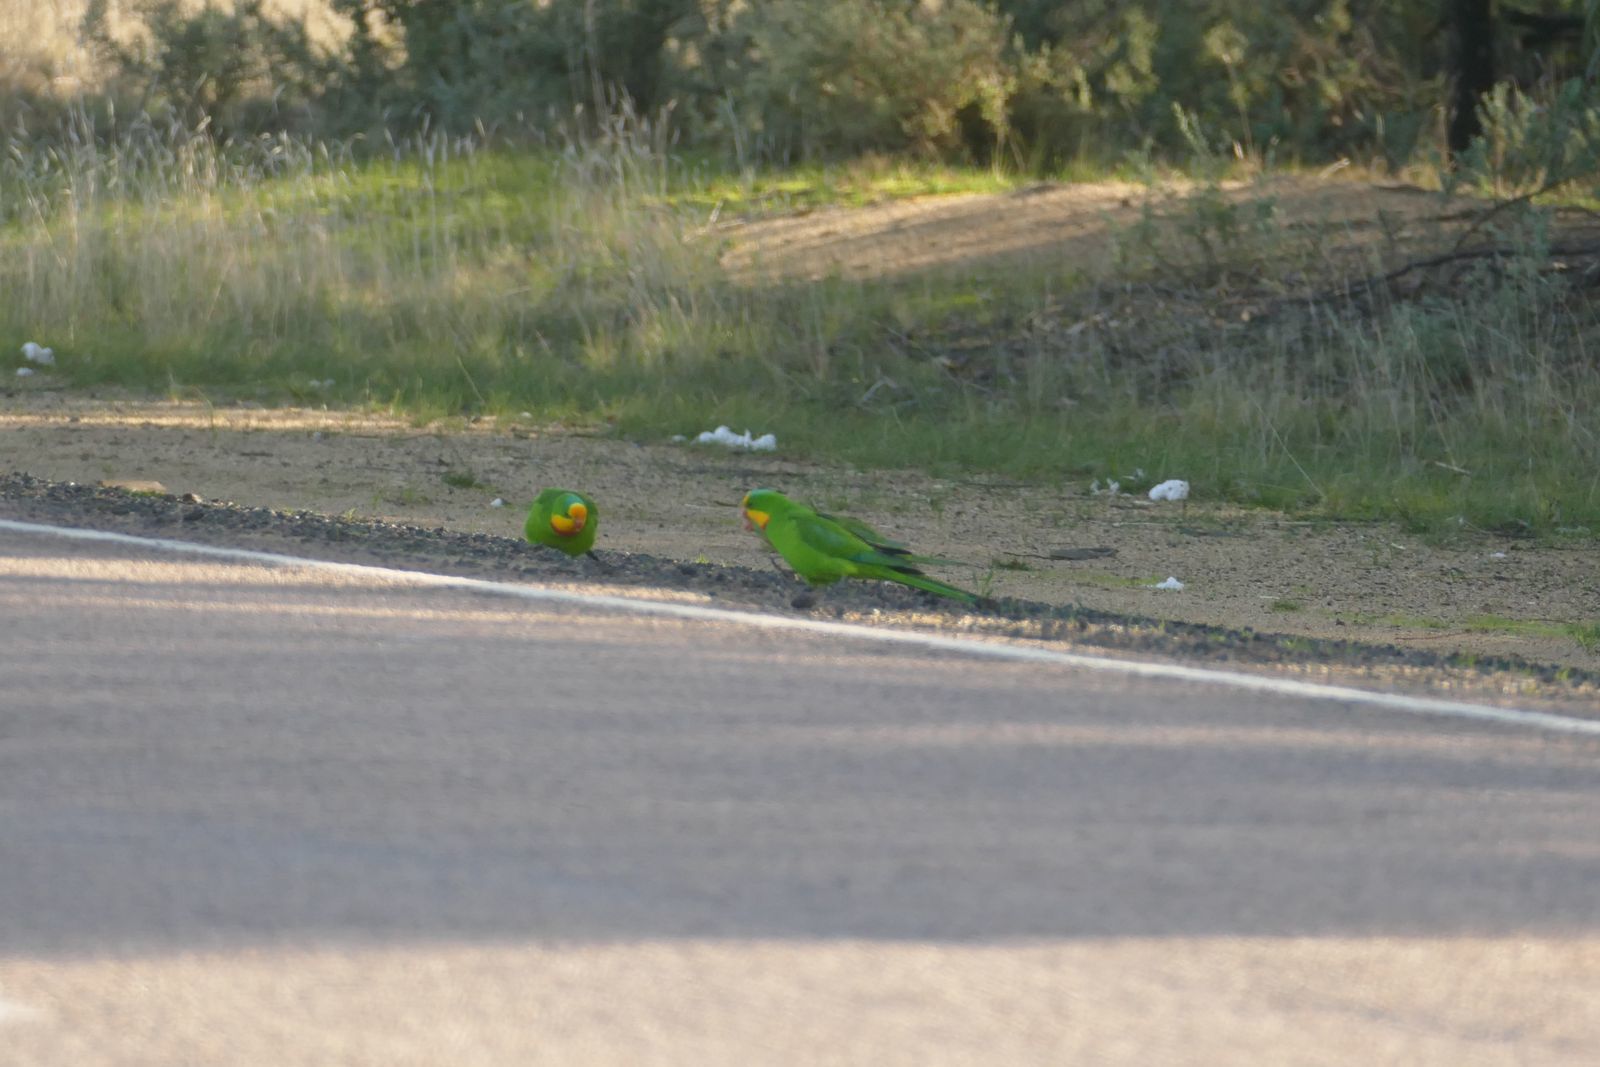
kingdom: Animalia
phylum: Chordata
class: Aves
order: Psittaciformes
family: Psittacidae
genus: Polytelis
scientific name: Polytelis swainsonii
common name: Superb parrot
